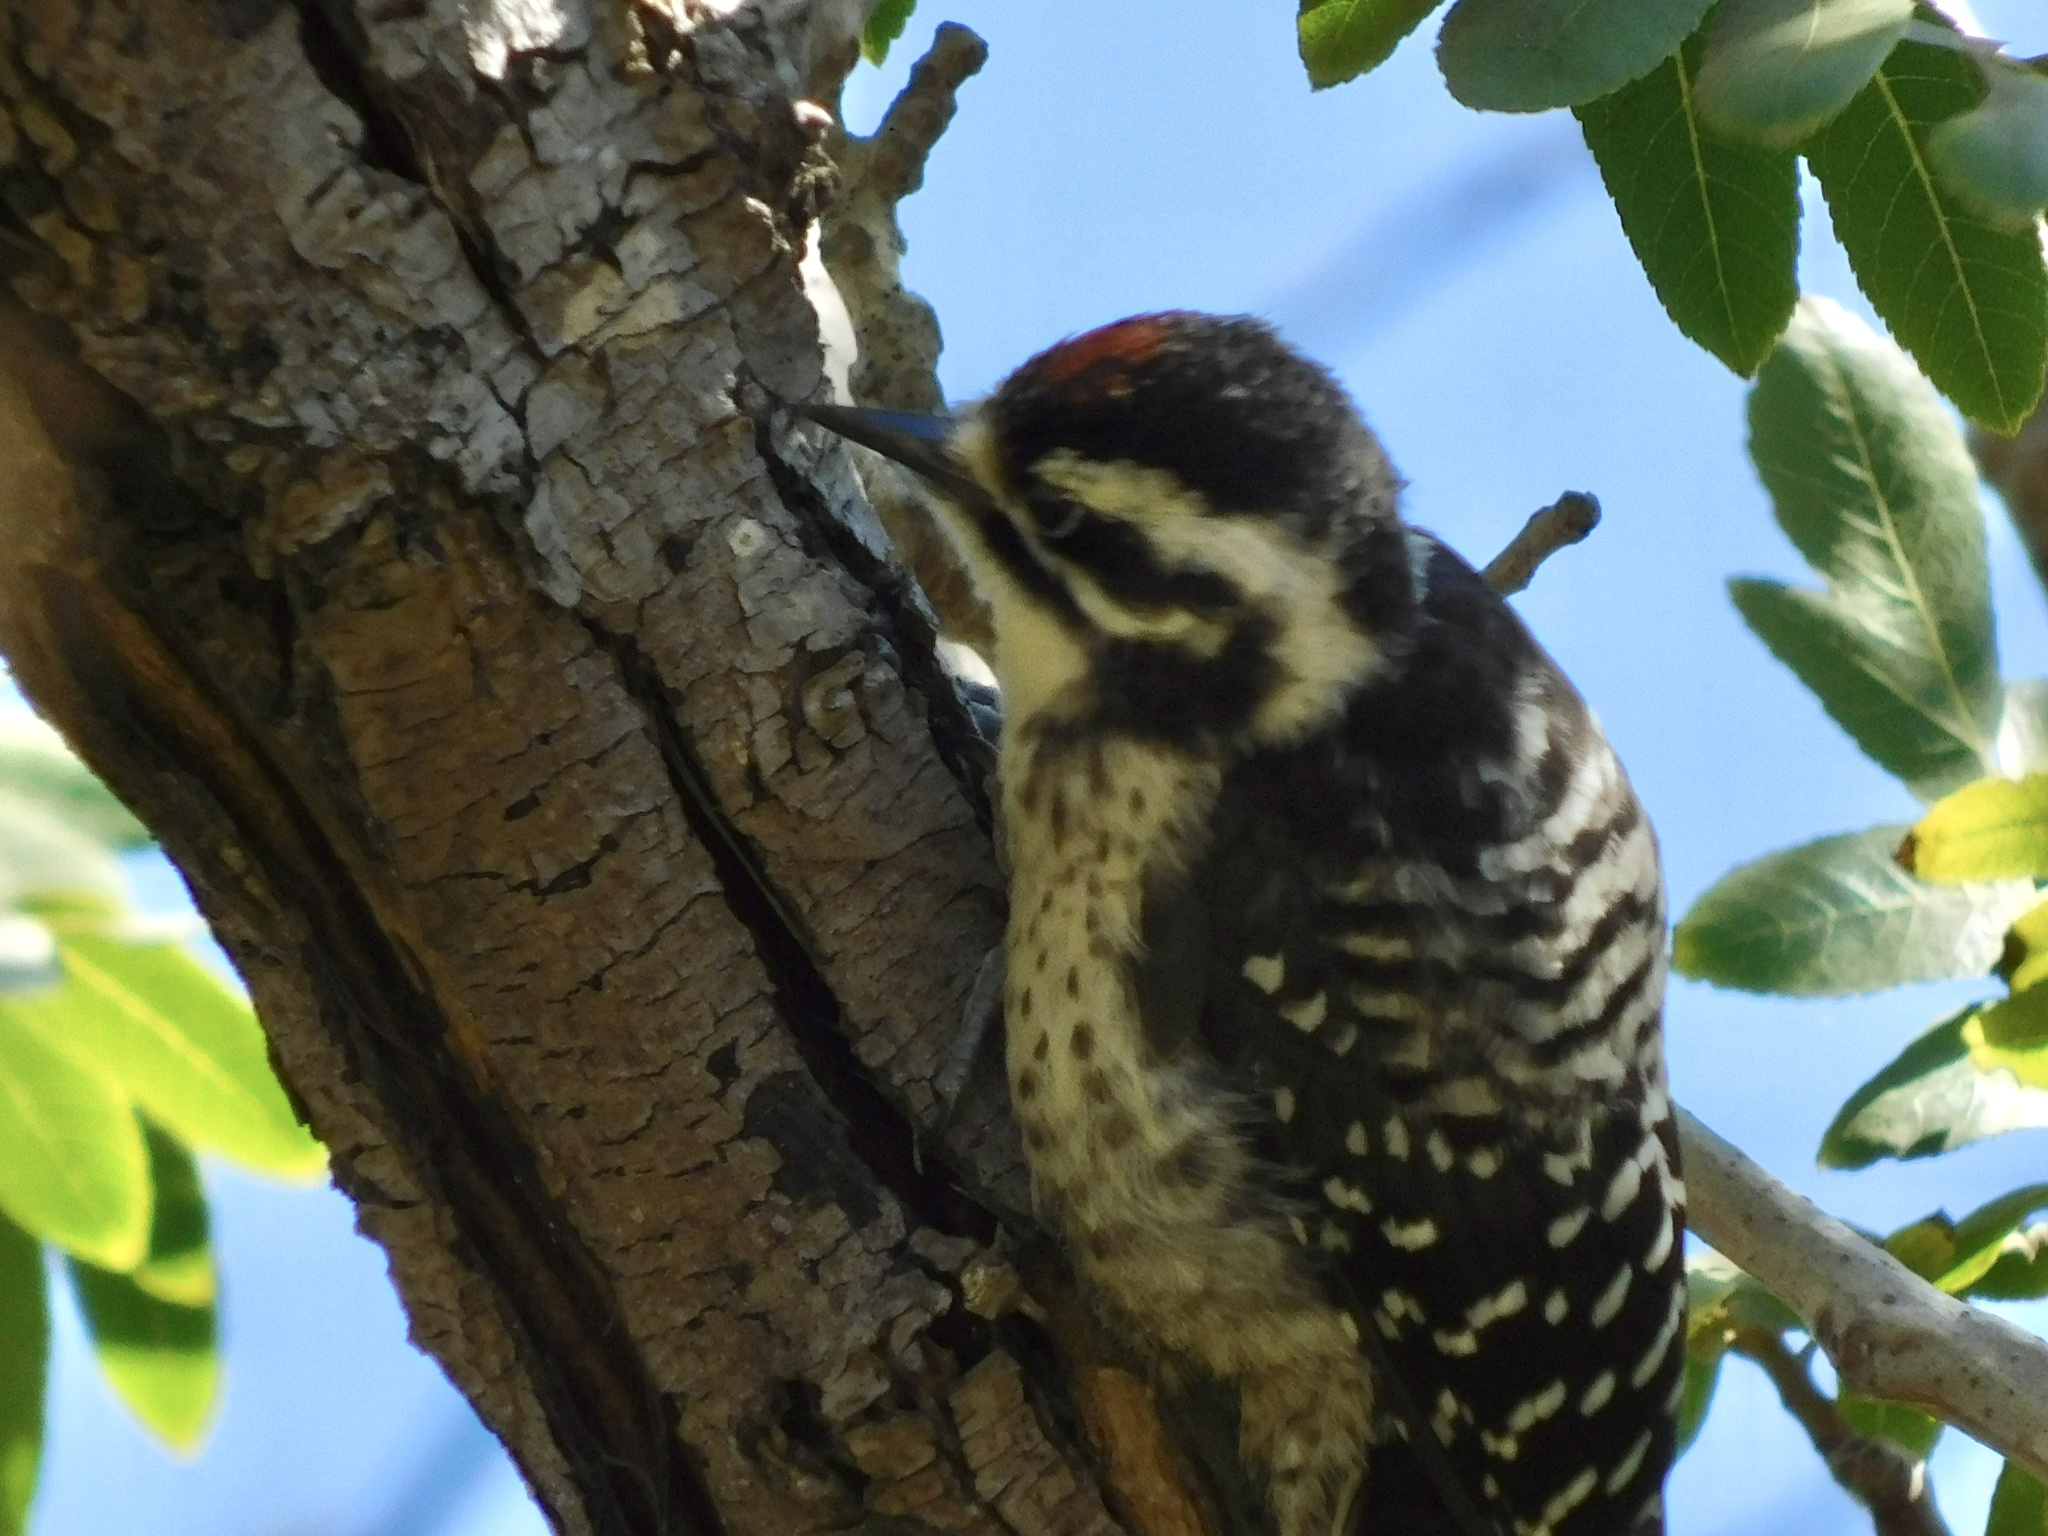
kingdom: Animalia
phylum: Chordata
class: Aves
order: Piciformes
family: Picidae
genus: Dryobates
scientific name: Dryobates nuttallii
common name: Nuttall's woodpecker
